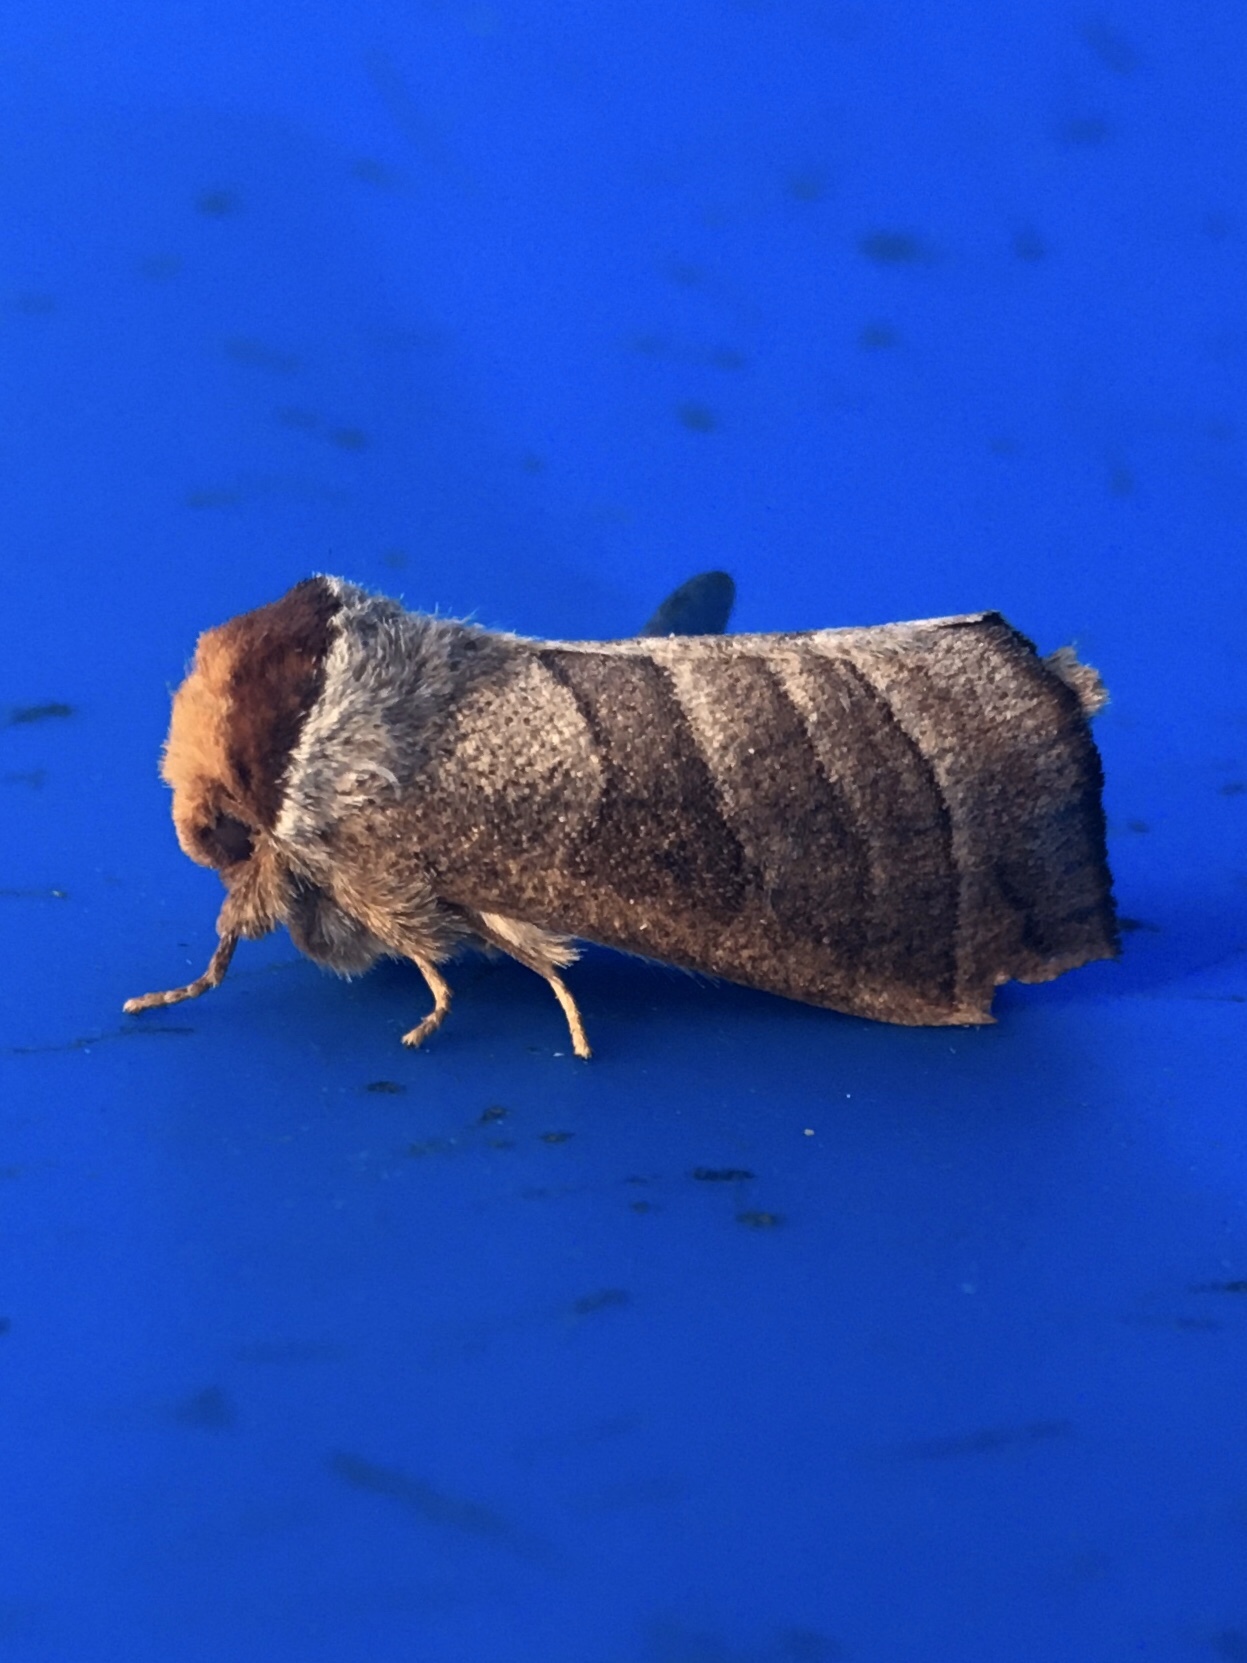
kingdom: Animalia
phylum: Arthropoda
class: Insecta
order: Lepidoptera
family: Notodontidae
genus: Datana
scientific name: Datana integerrima
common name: Walnut caterpillar
